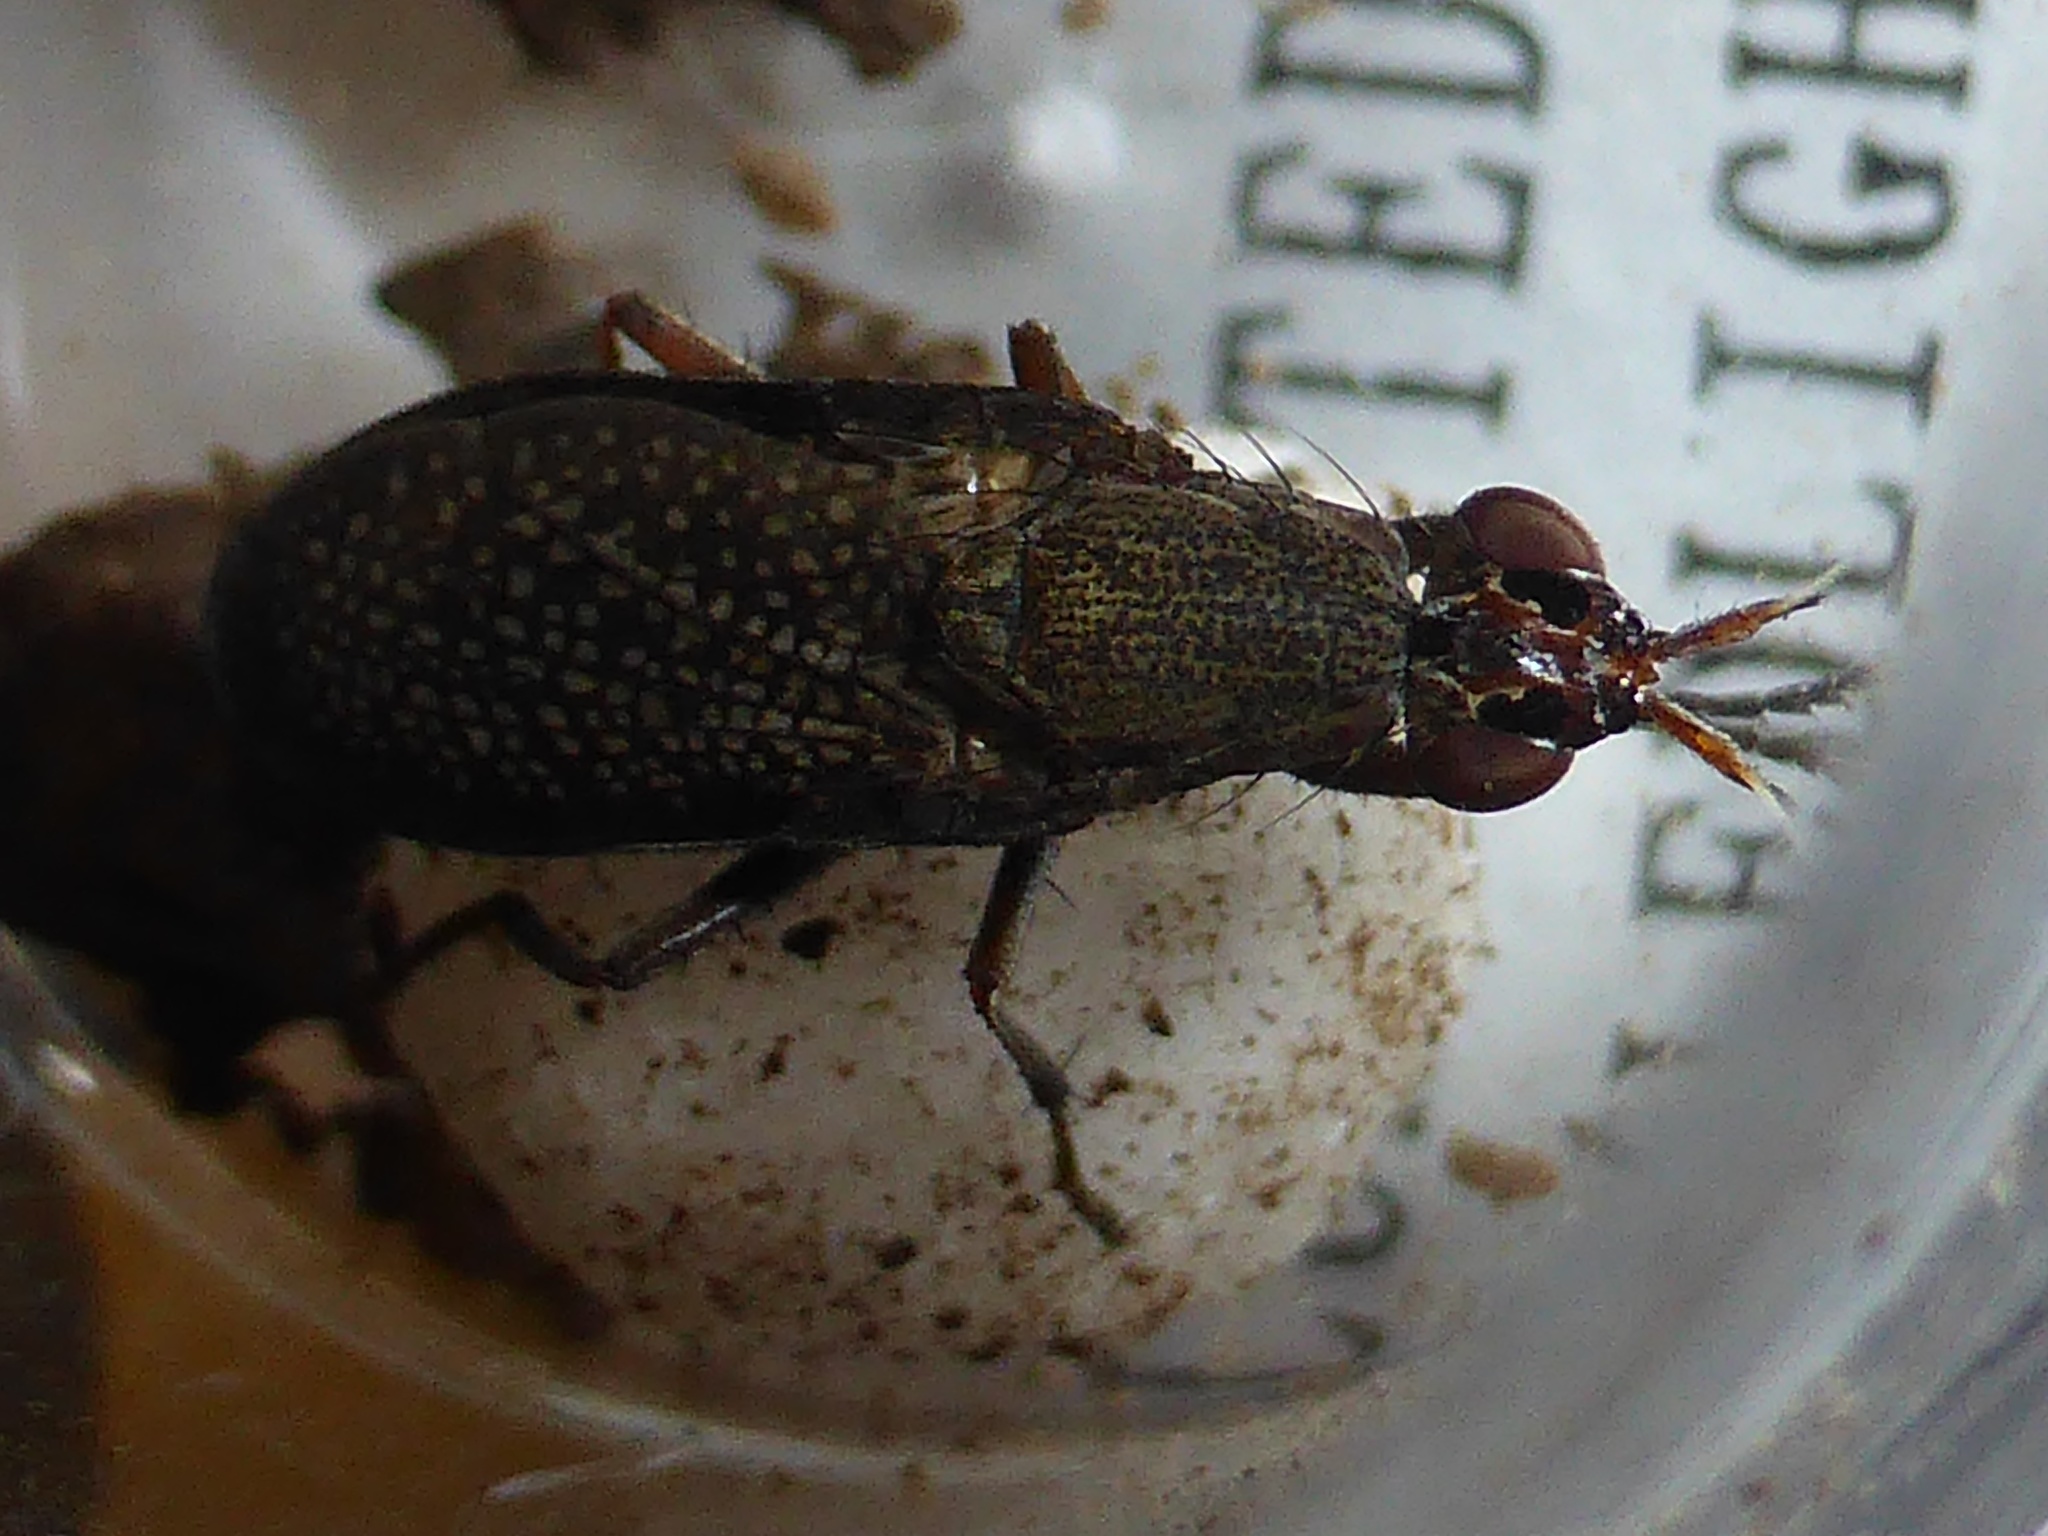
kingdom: Animalia
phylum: Arthropoda
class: Insecta
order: Diptera
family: Sciomyzidae
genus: Coremacera
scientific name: Coremacera marginata
